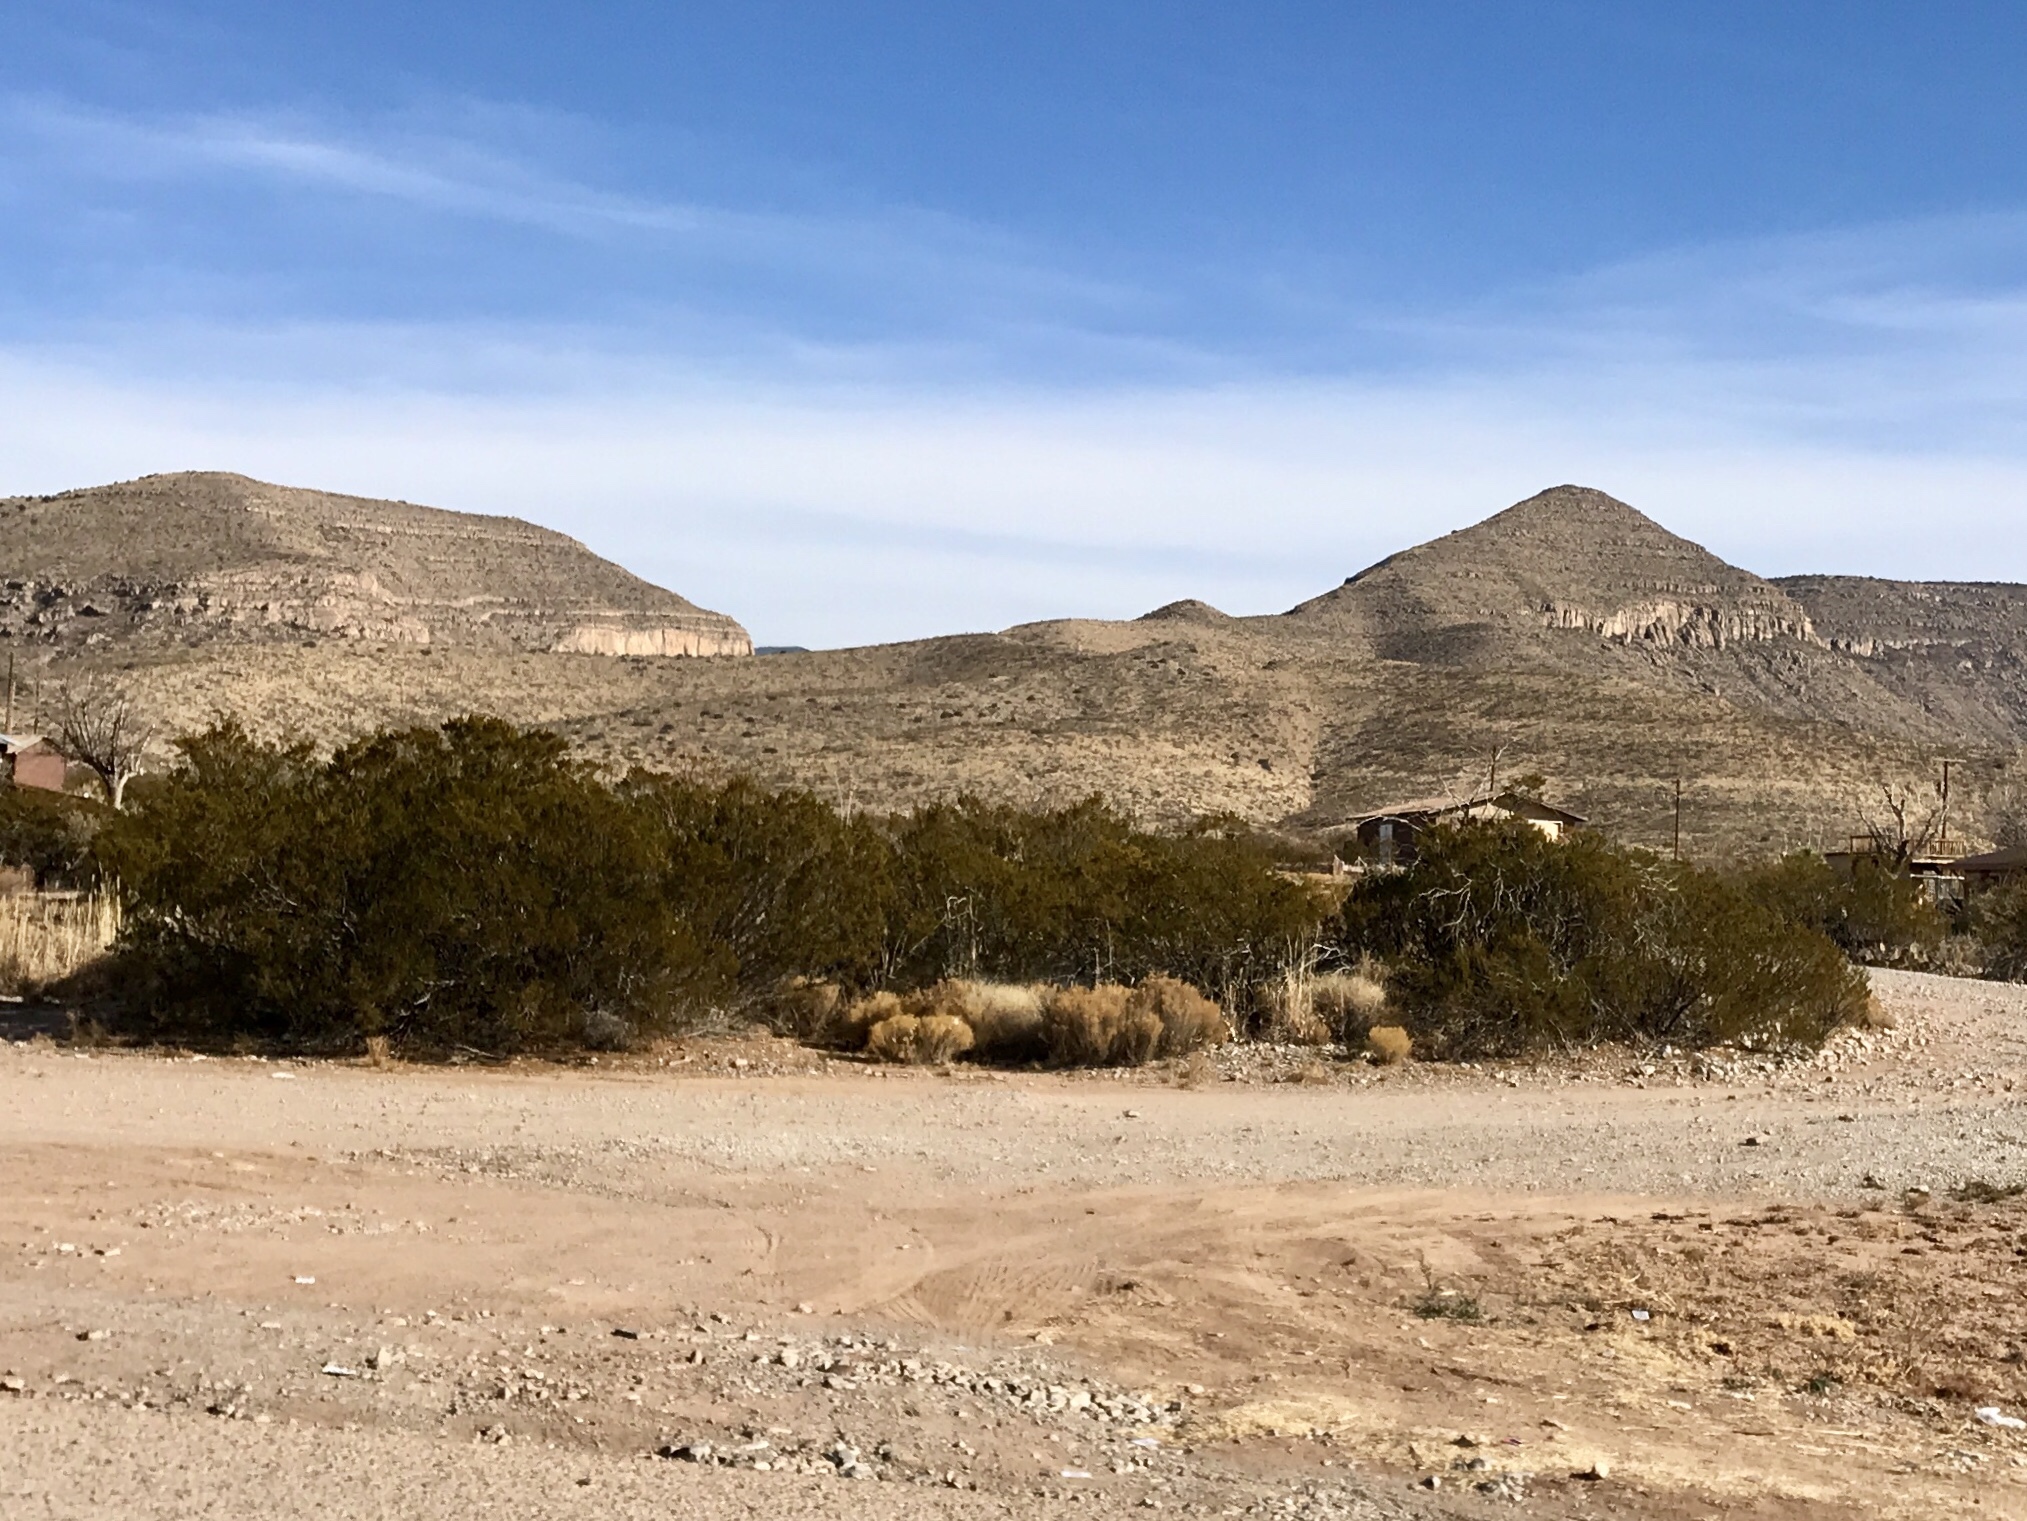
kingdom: Plantae
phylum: Tracheophyta
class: Magnoliopsida
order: Zygophyllales
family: Zygophyllaceae
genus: Larrea
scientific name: Larrea tridentata
